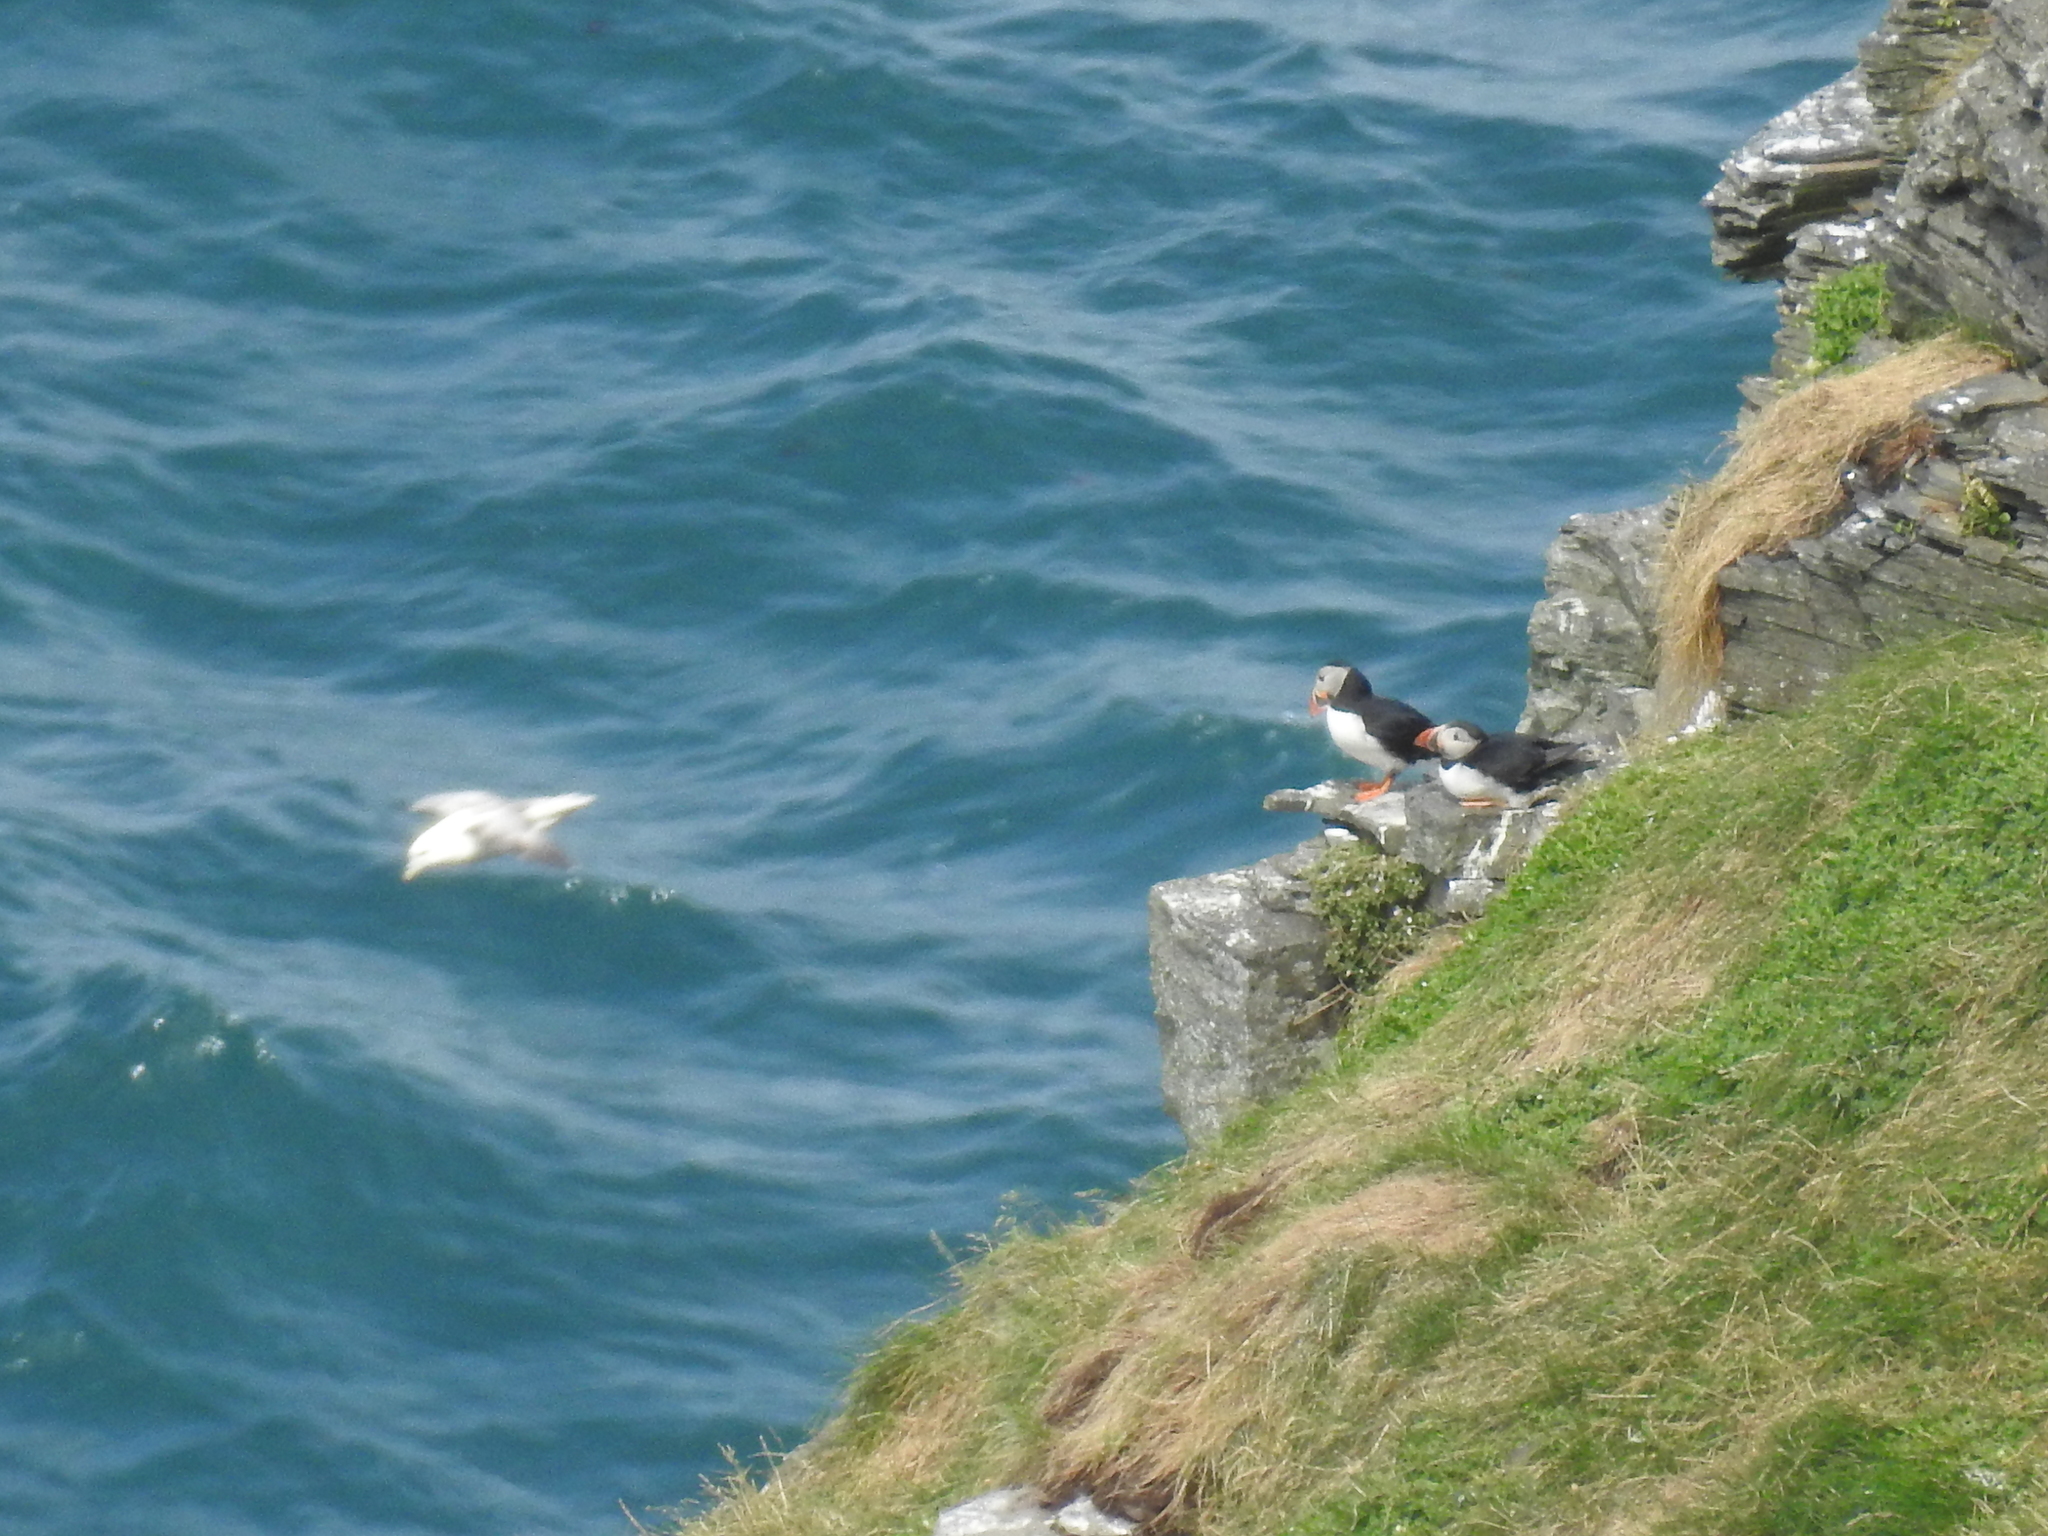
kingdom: Animalia
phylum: Chordata
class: Aves
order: Charadriiformes
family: Alcidae
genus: Fratercula
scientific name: Fratercula arctica
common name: Atlantic puffin
